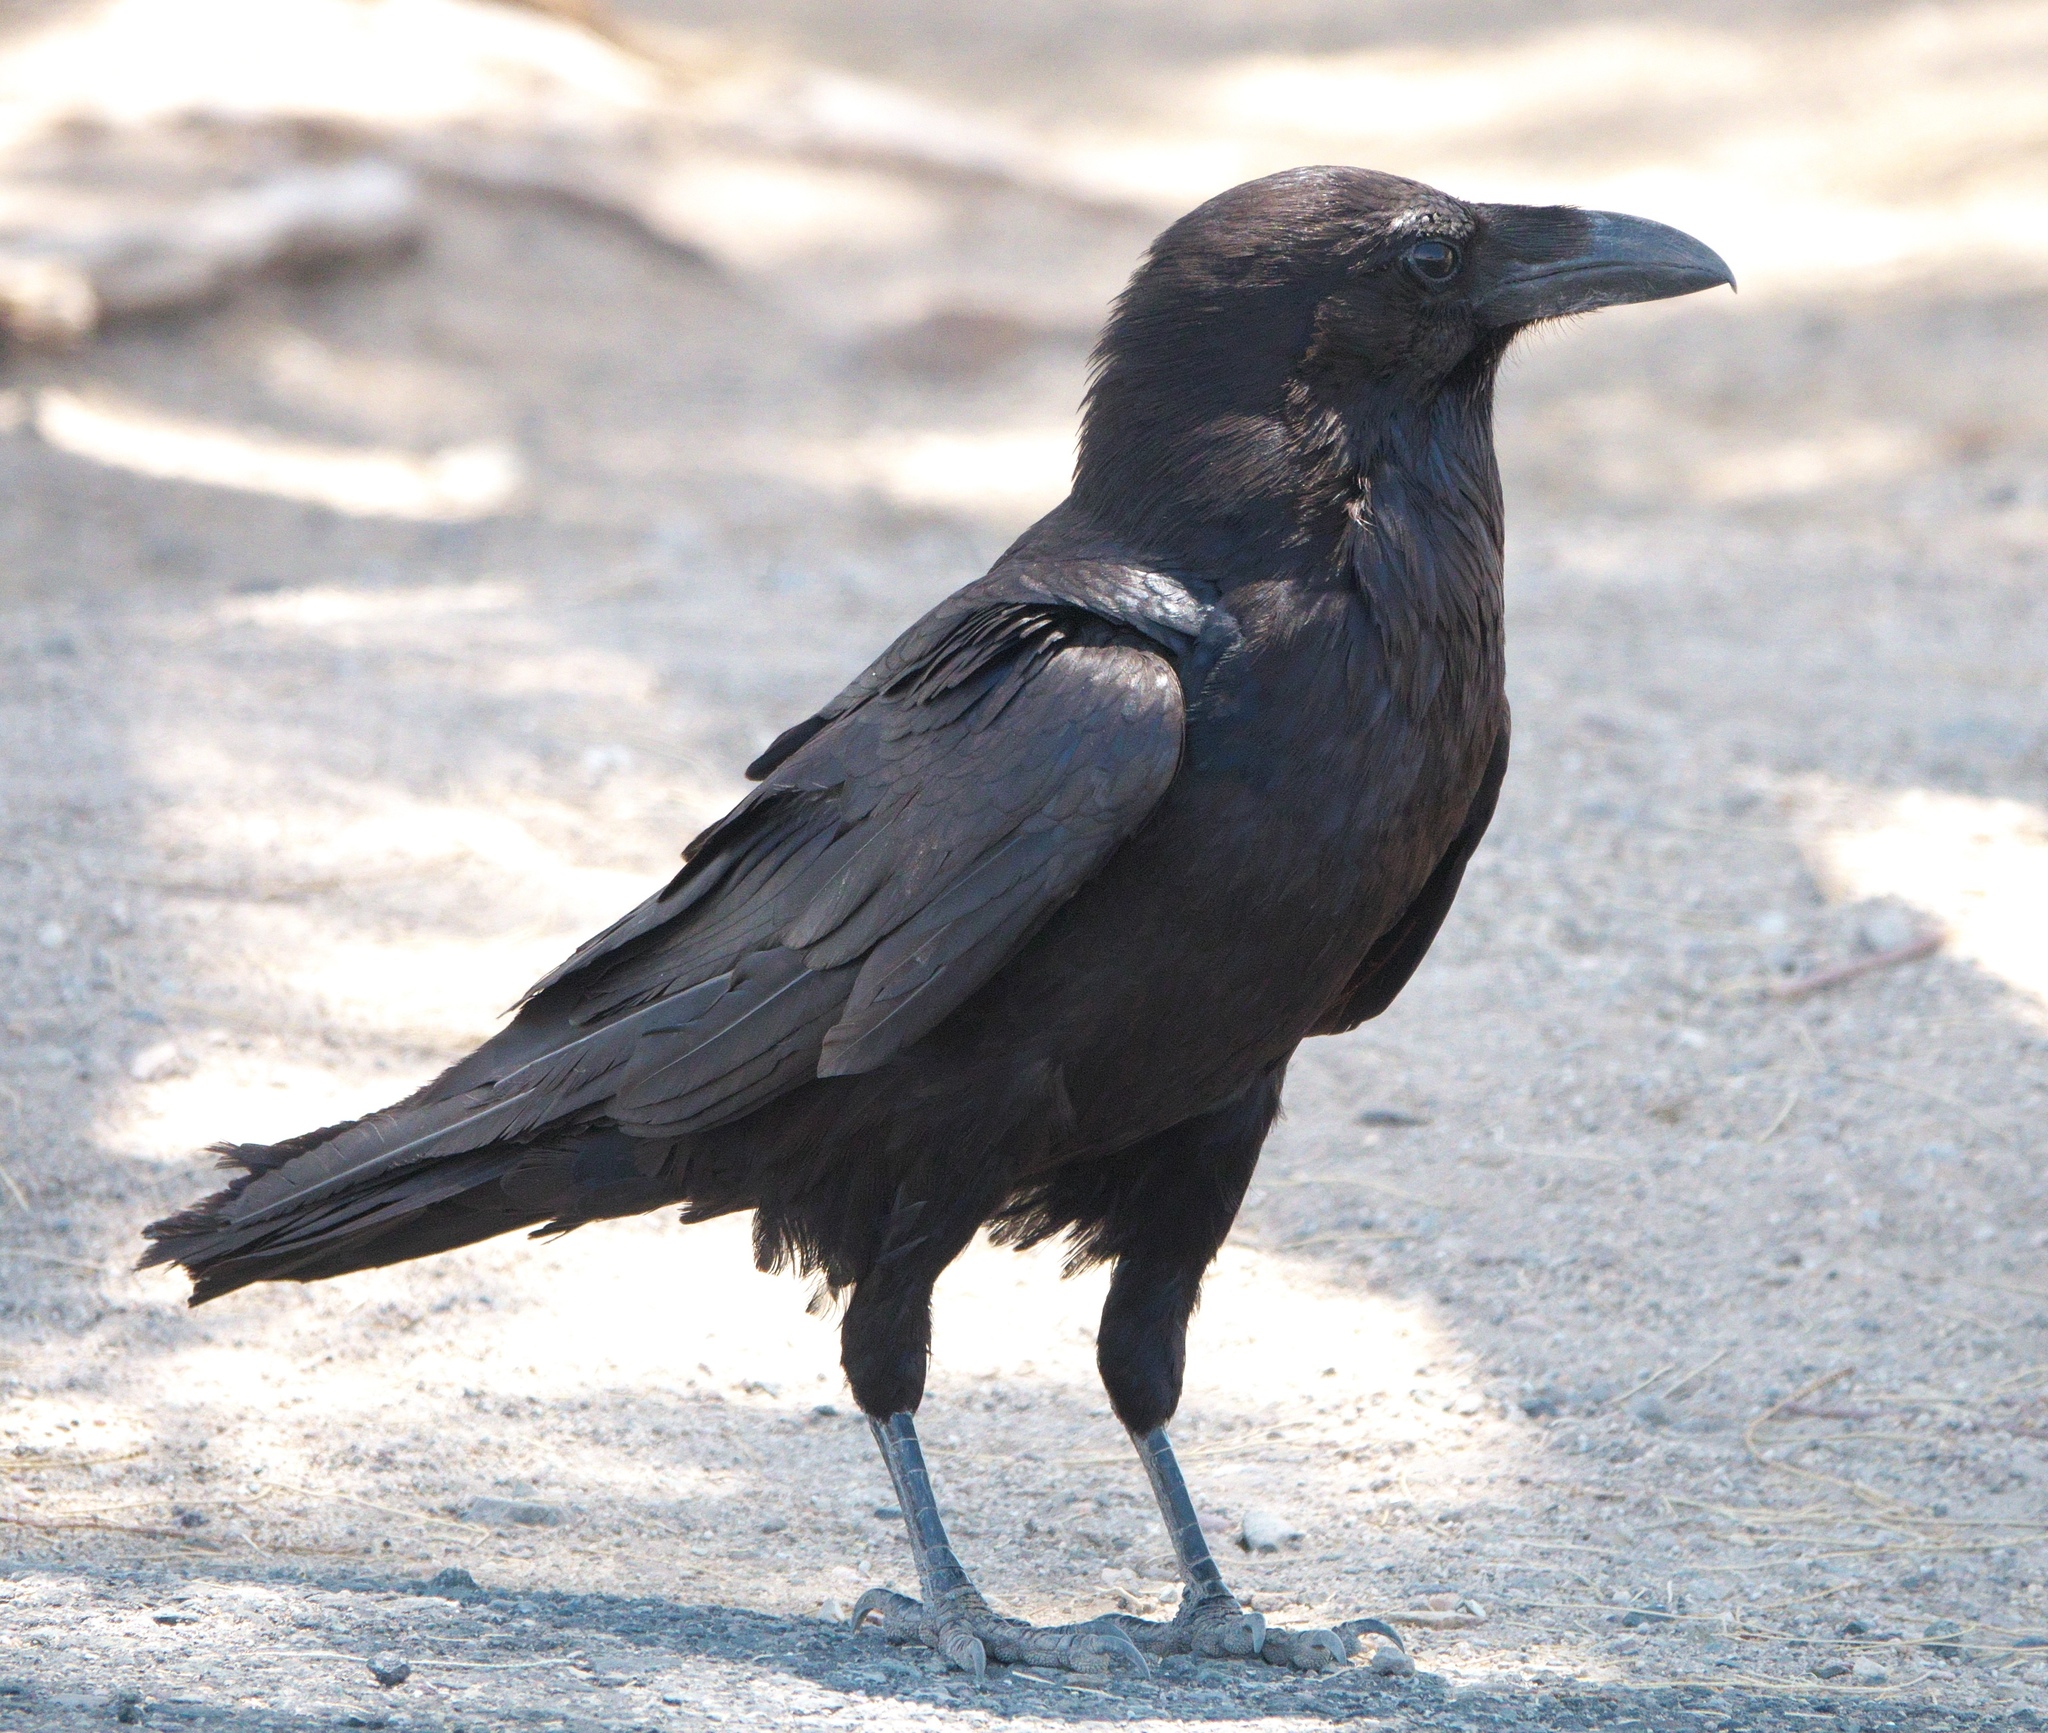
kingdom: Animalia
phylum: Chordata
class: Aves
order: Passeriformes
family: Corvidae
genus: Corvus
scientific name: Corvus corax
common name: Common raven
